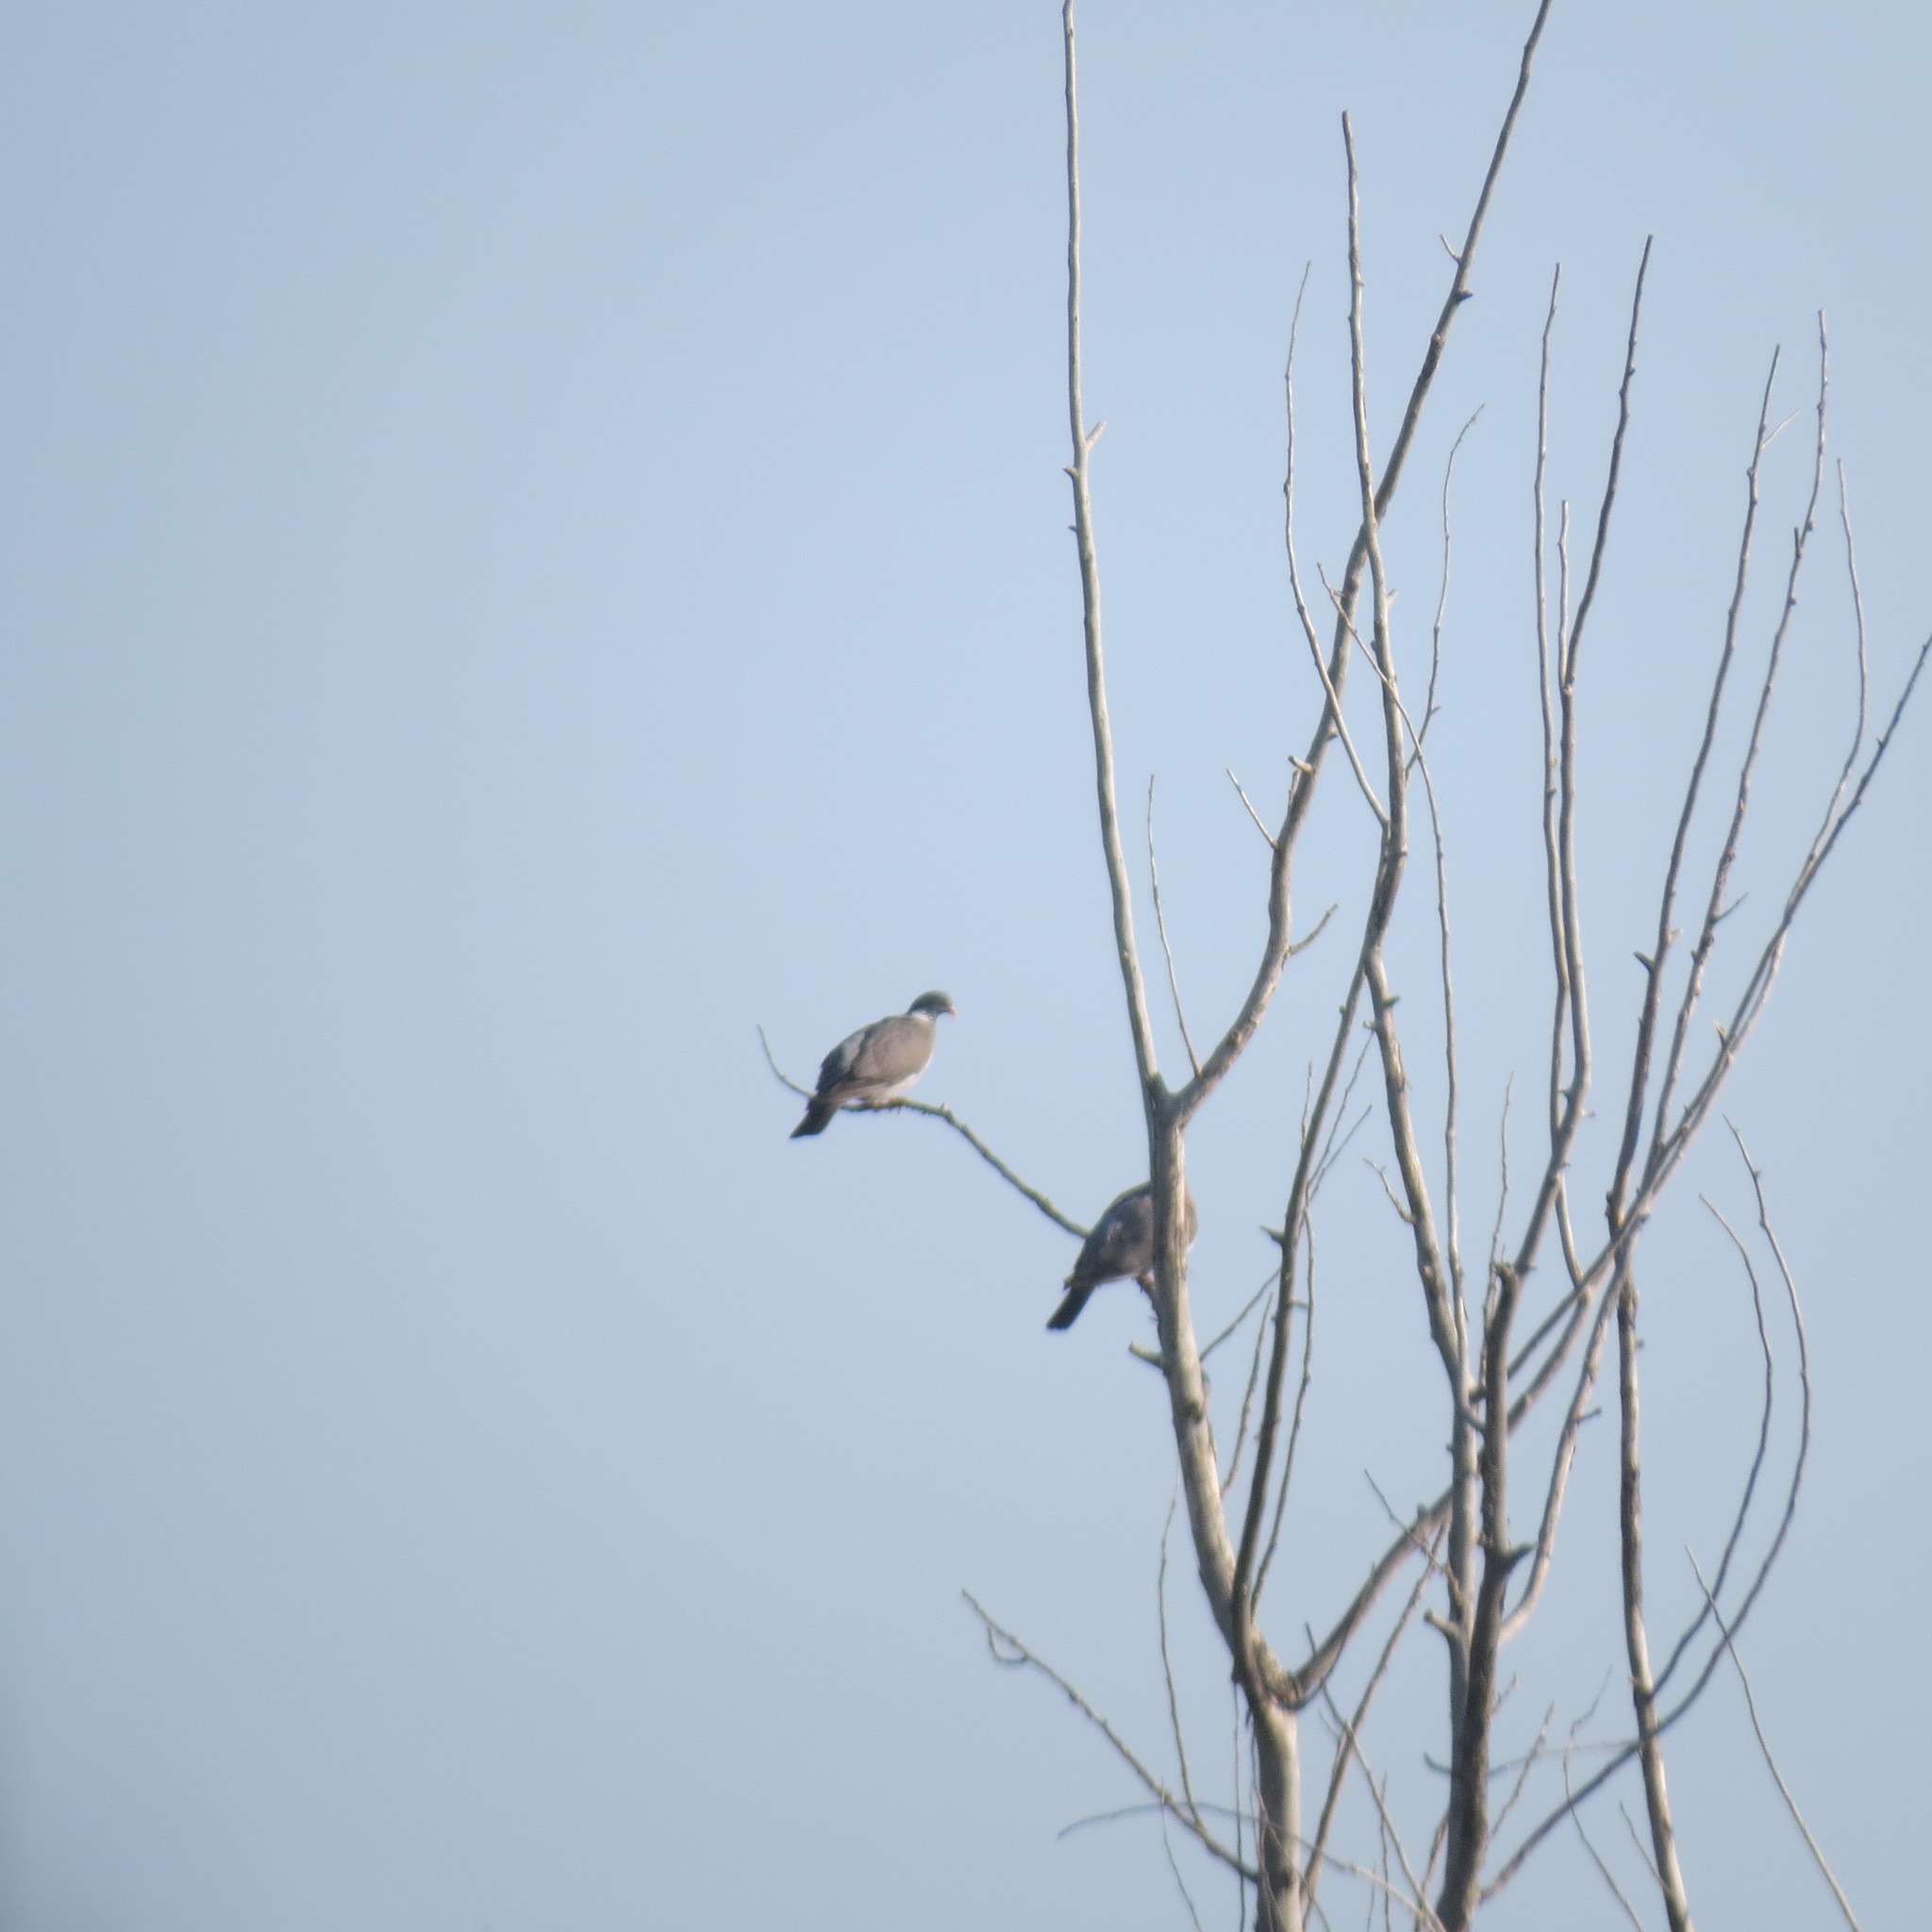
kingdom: Animalia
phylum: Chordata
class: Aves
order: Columbiformes
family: Columbidae
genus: Columba
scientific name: Columba palumbus
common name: Common wood pigeon
